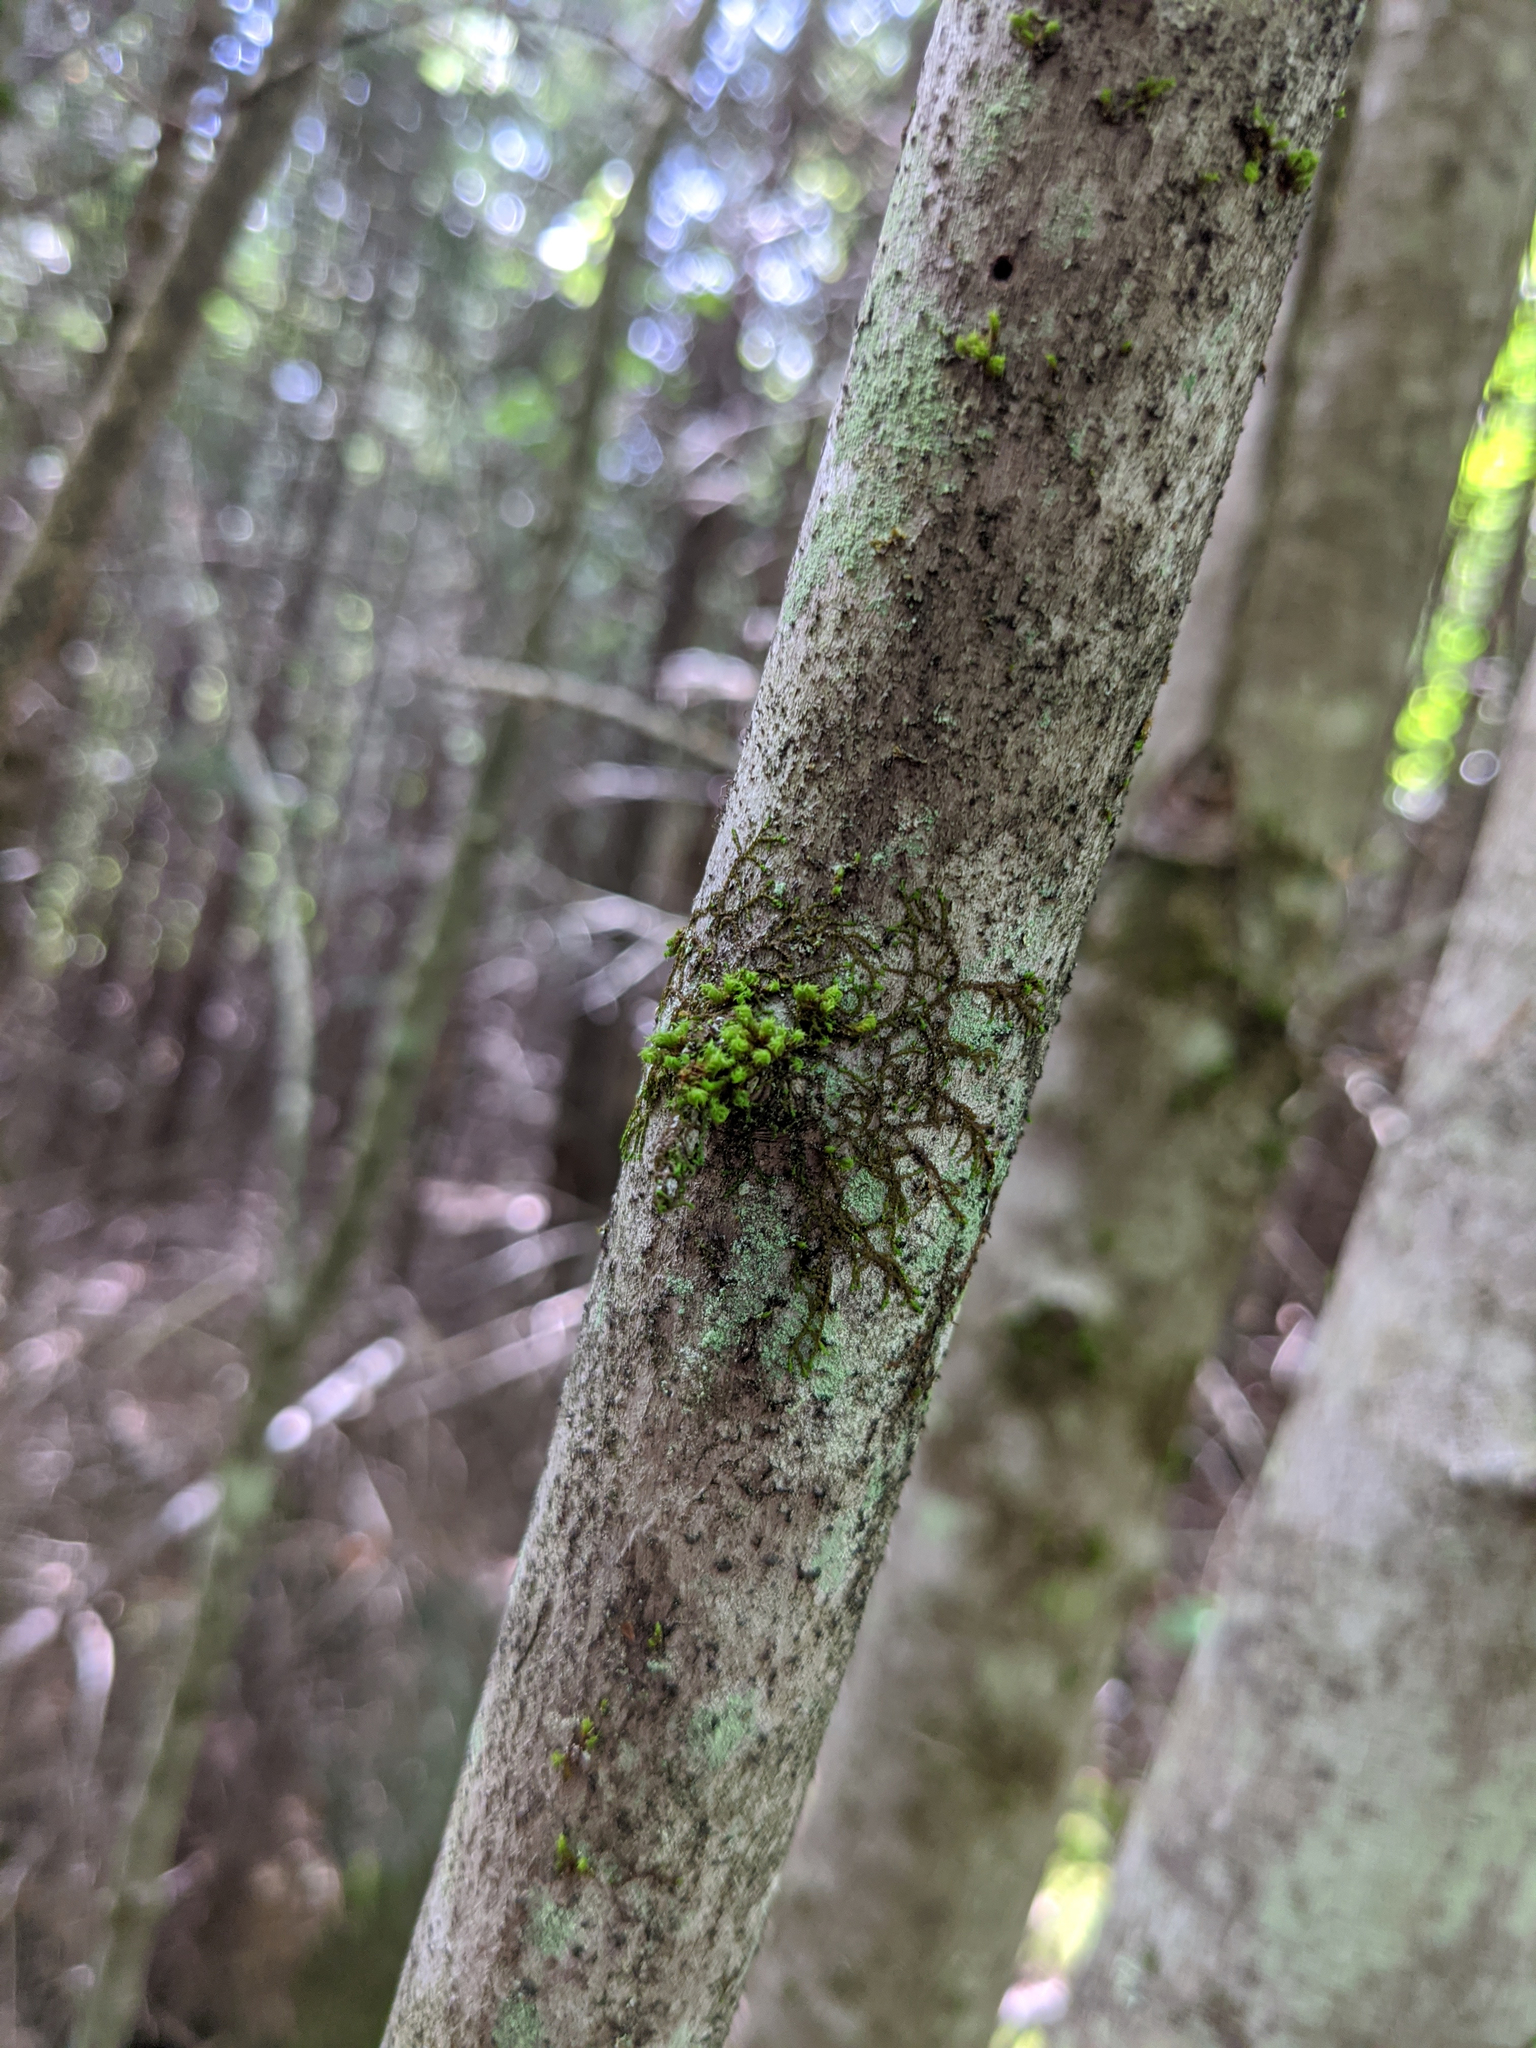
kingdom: Plantae
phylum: Bryophyta
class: Bryopsida
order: Orthotrichales
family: Orthotrichaceae
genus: Ulota
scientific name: Ulota crispa
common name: Crisped pincushion moss
